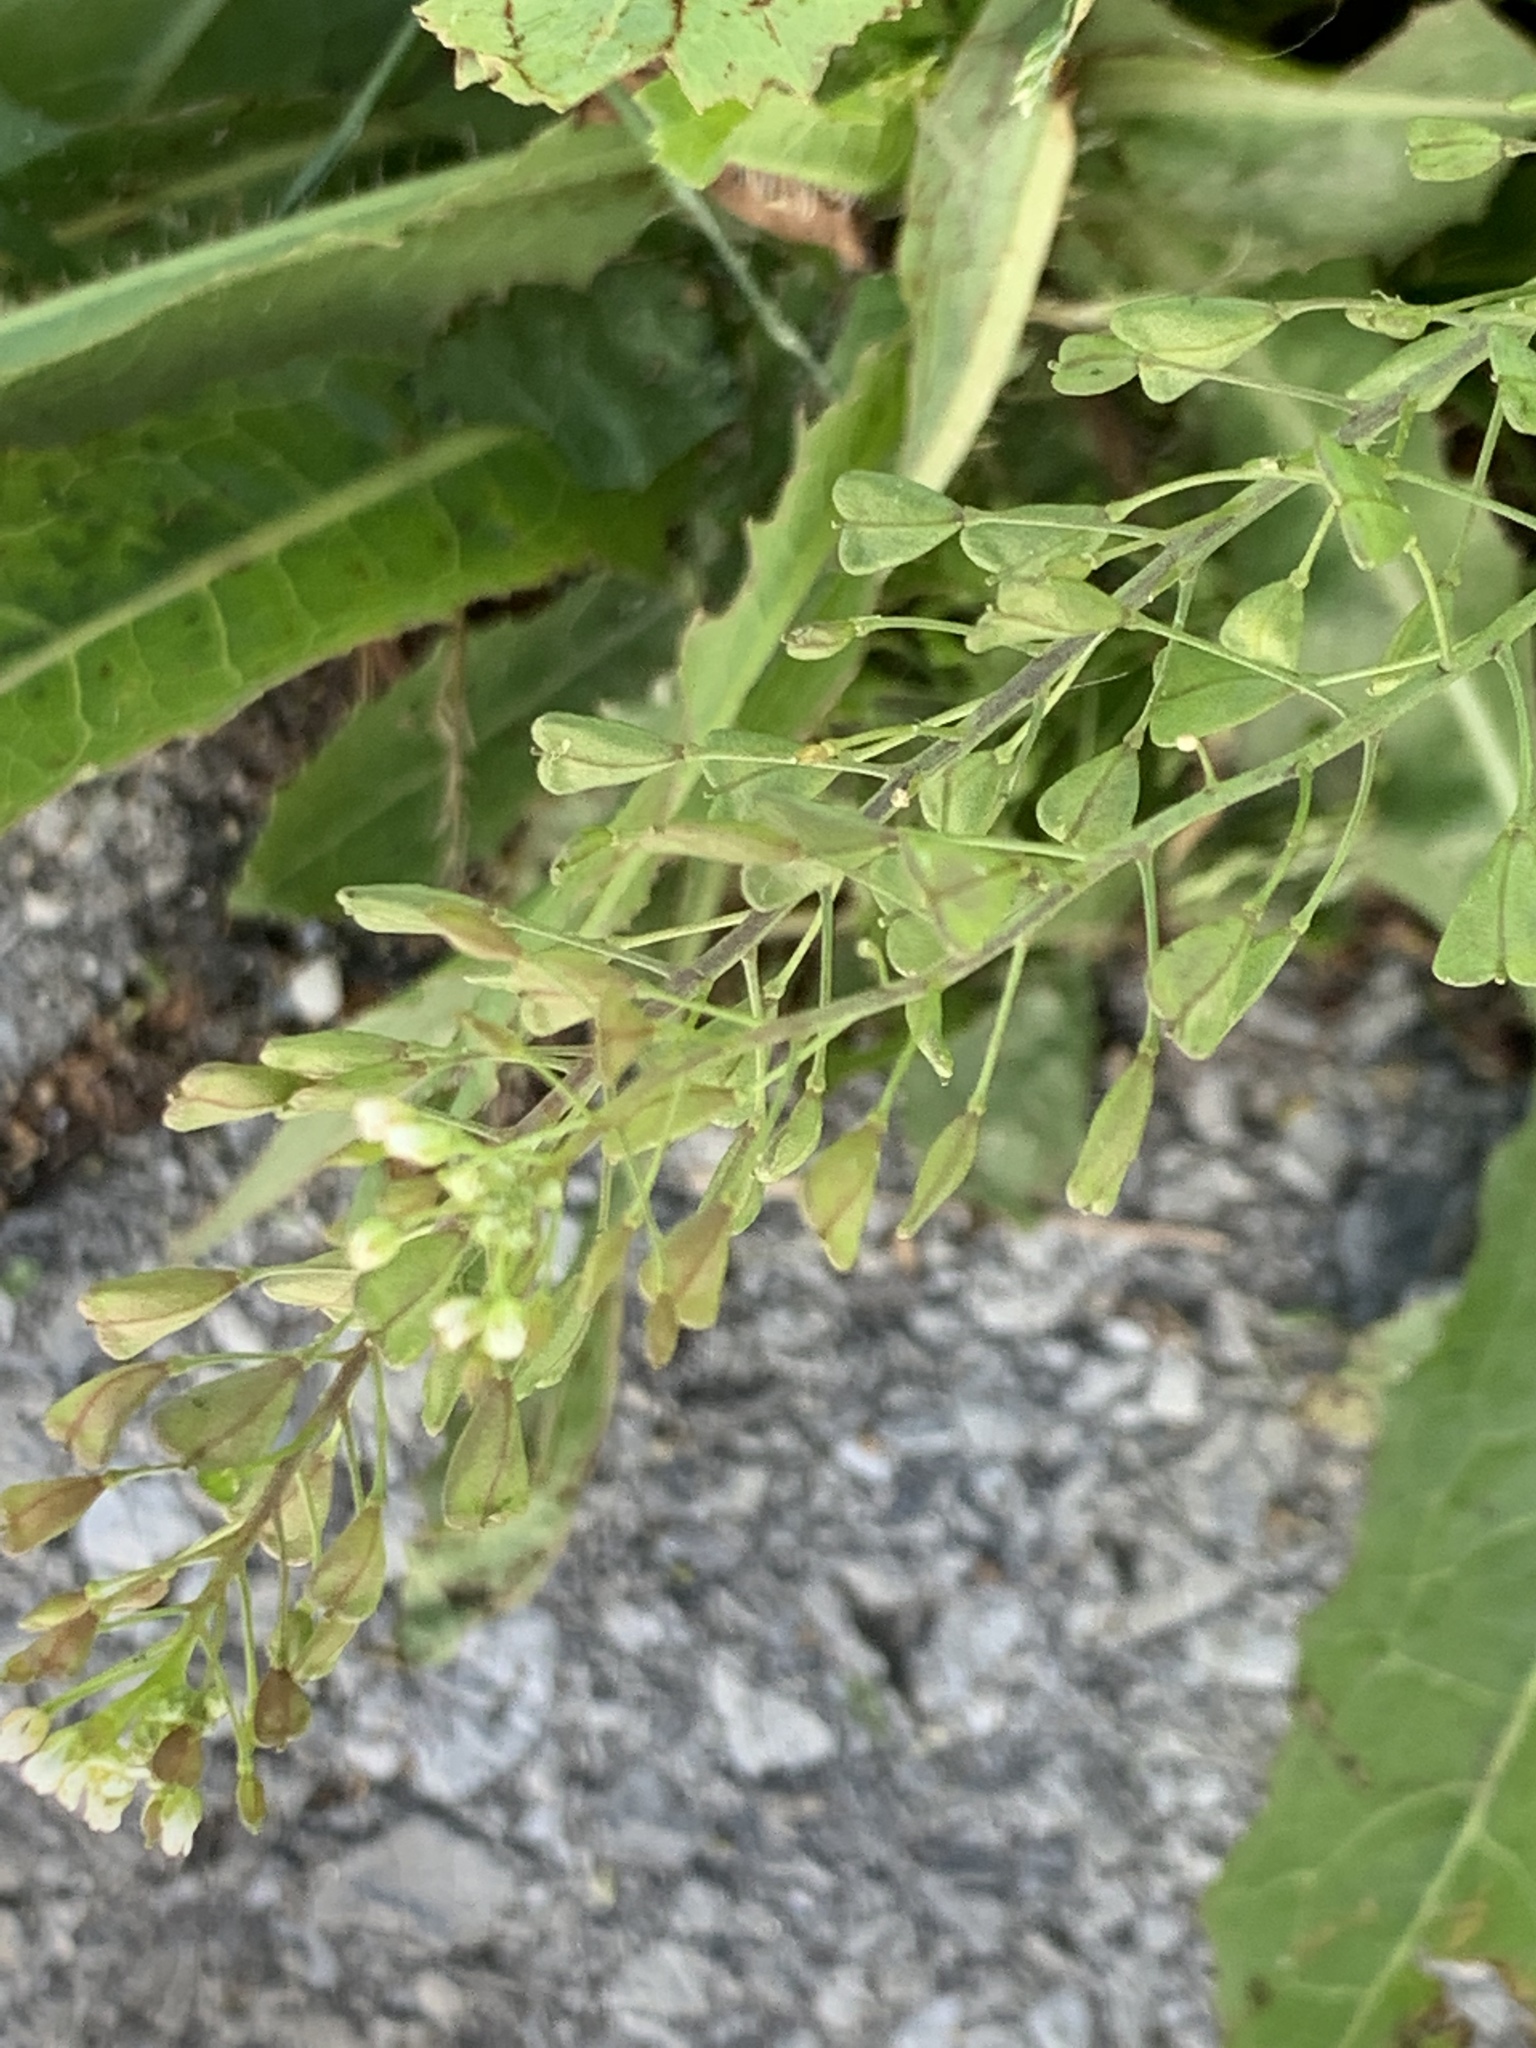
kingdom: Plantae
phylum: Tracheophyta
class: Magnoliopsida
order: Brassicales
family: Brassicaceae
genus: Capsella
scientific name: Capsella bursa-pastoris
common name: Shepherd's purse
